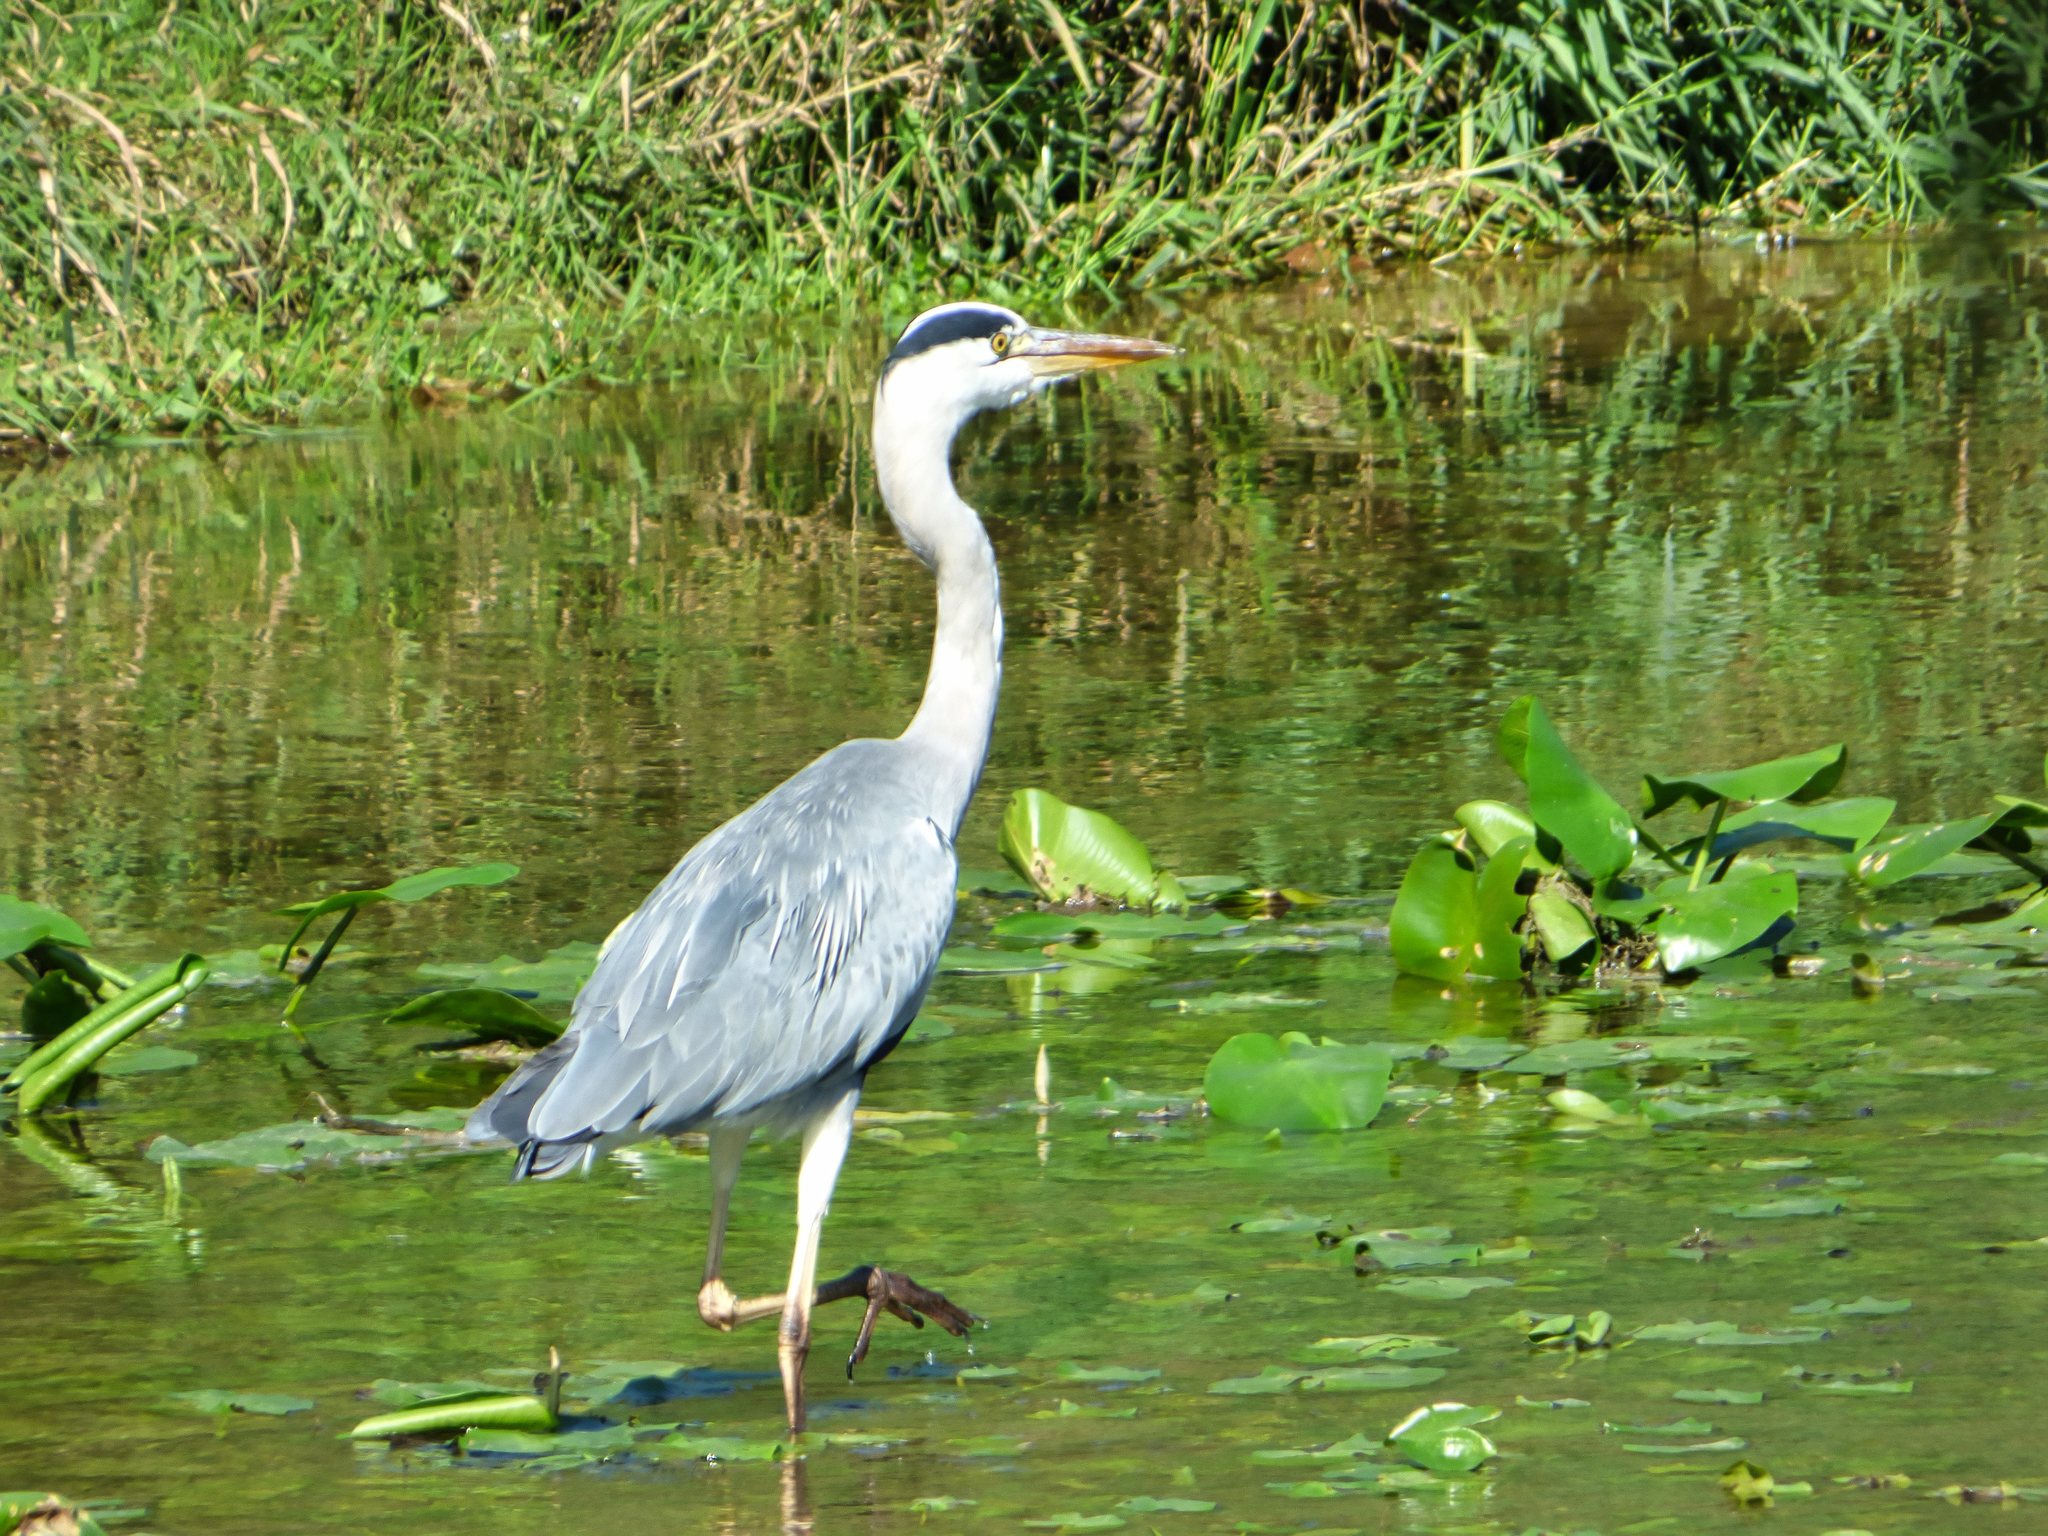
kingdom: Animalia
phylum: Chordata
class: Aves
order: Pelecaniformes
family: Ardeidae
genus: Ardea
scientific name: Ardea cinerea
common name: Grey heron
